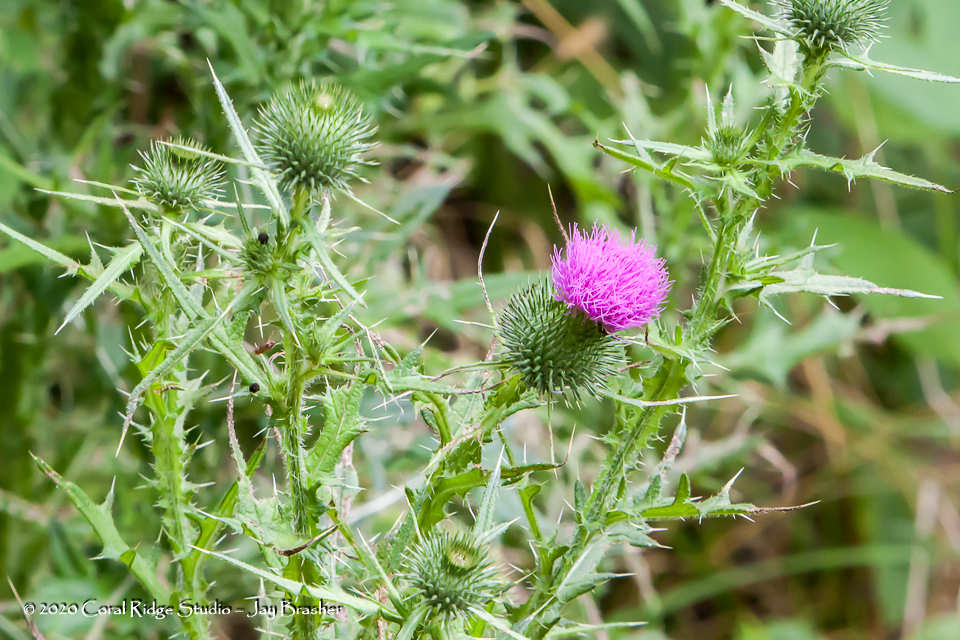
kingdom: Plantae
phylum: Tracheophyta
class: Magnoliopsida
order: Asterales
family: Asteraceae
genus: Cirsium
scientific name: Cirsium vulgare
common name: Bull thistle
